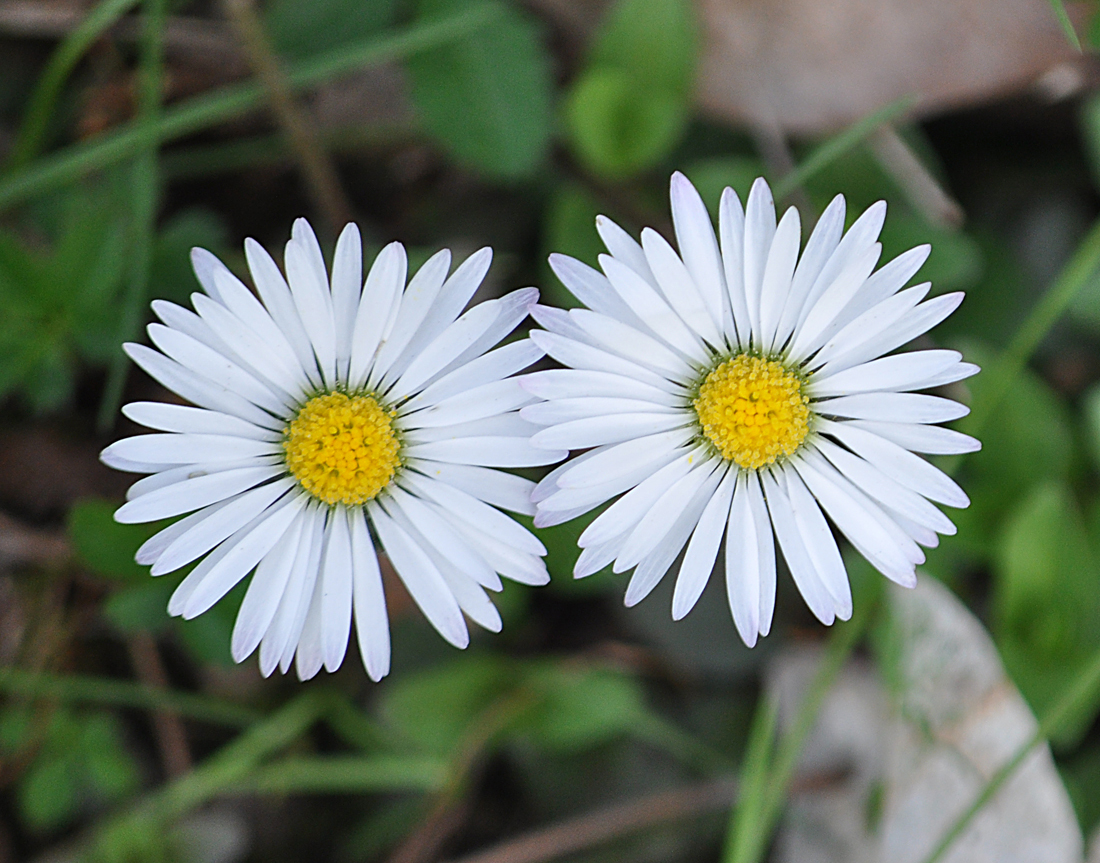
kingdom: Plantae
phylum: Tracheophyta
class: Magnoliopsida
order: Asterales
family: Asteraceae
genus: Bellis
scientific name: Bellis perennis
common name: Lawndaisy
